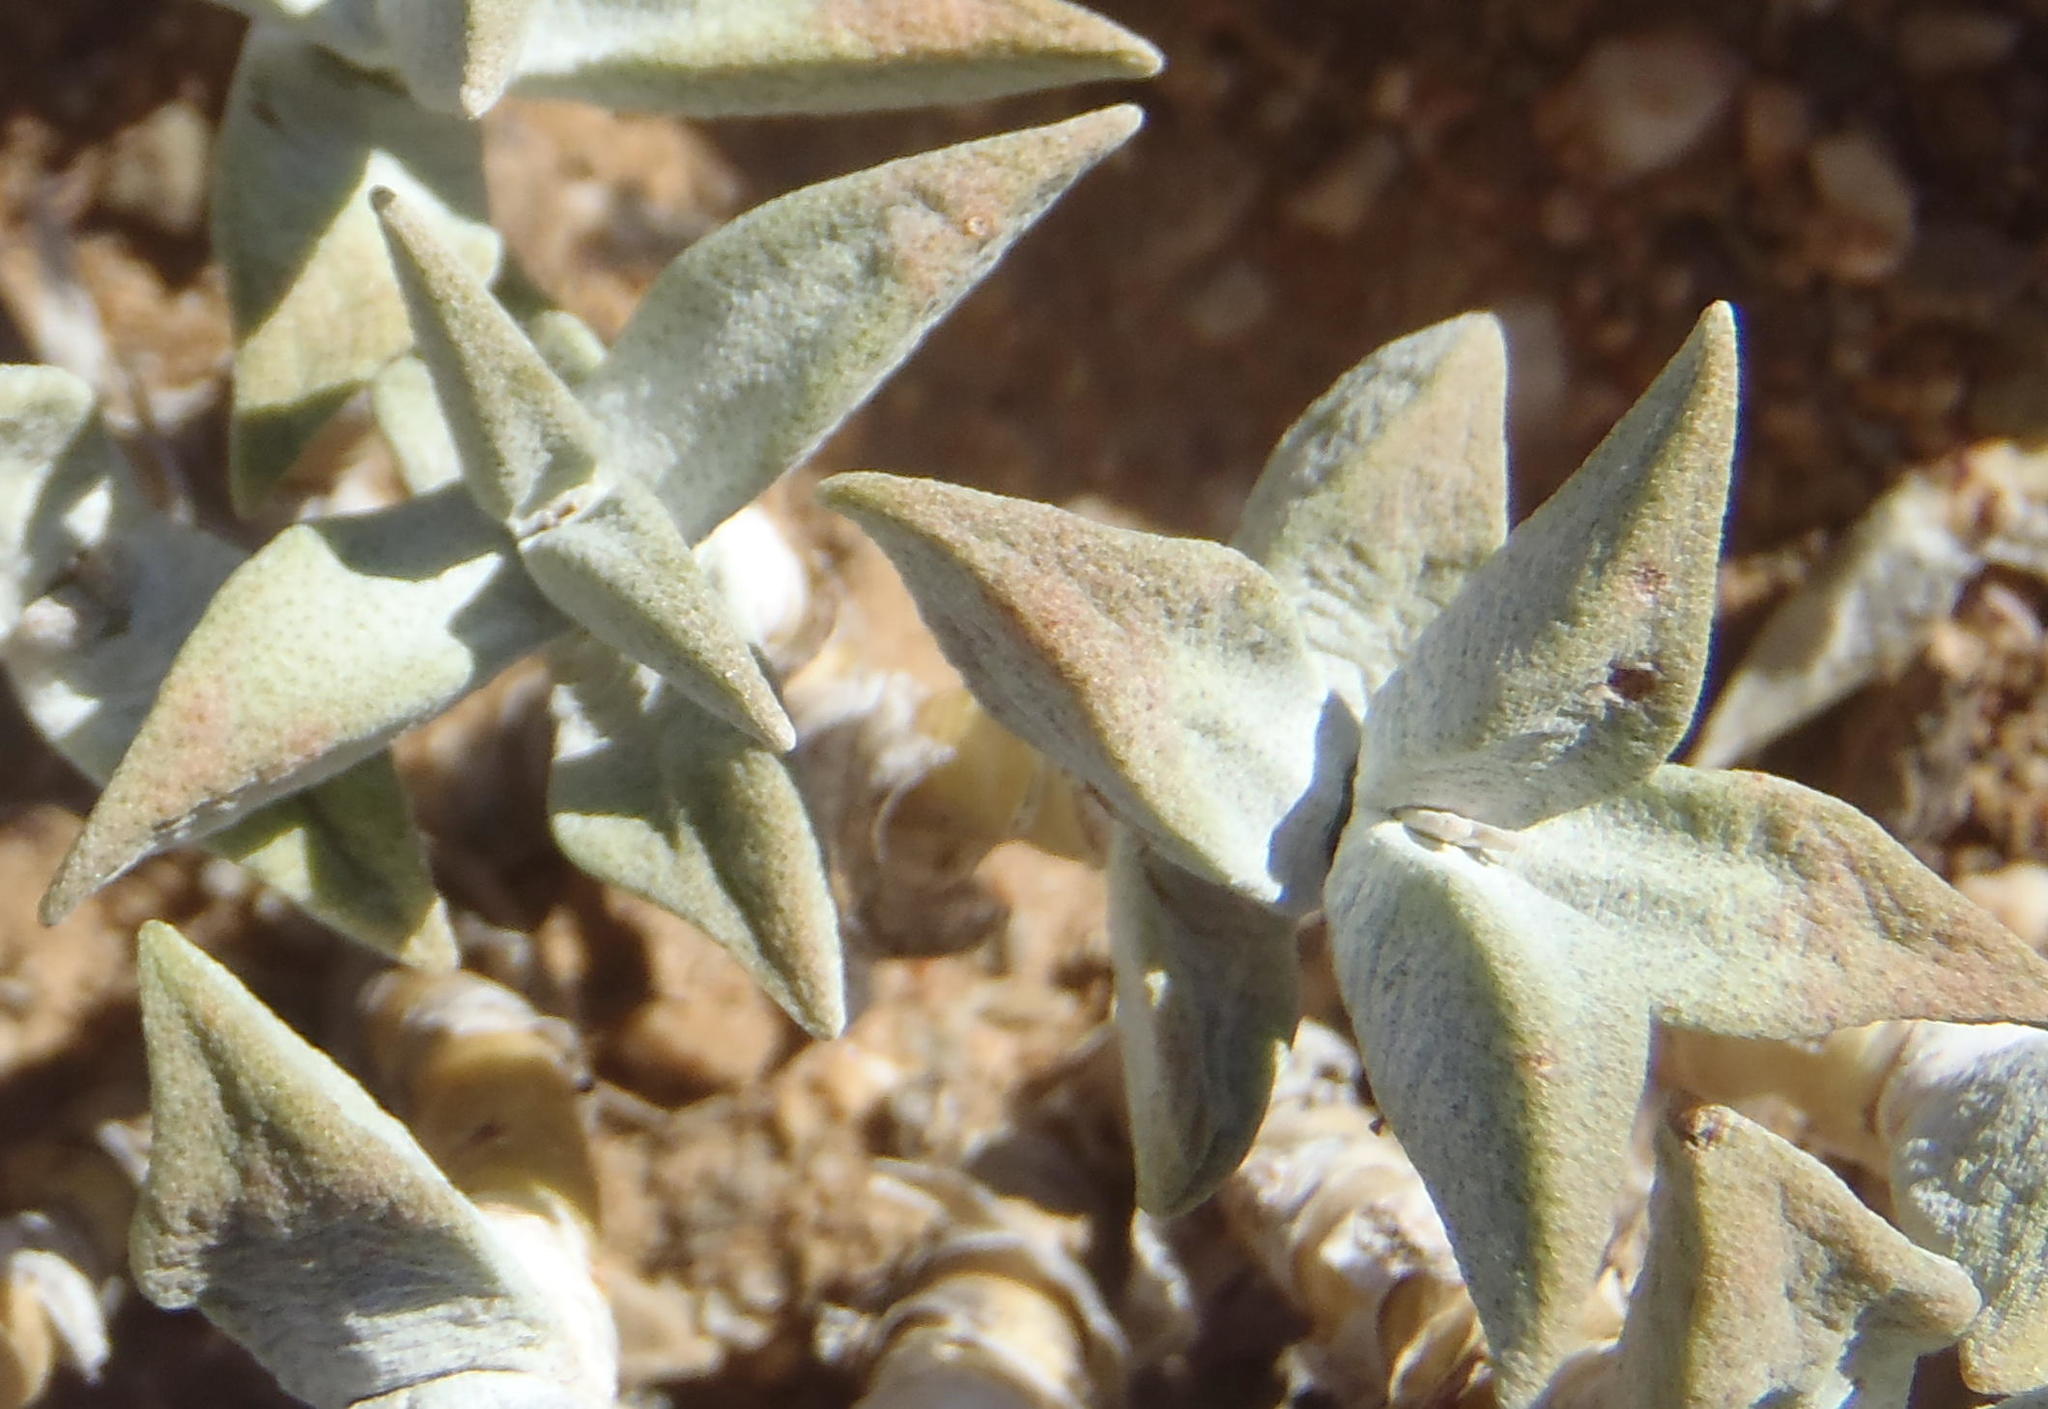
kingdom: Plantae
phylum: Tracheophyta
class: Magnoliopsida
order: Saxifragales
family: Crassulaceae
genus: Crassula
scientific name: Crassula deltoidea
